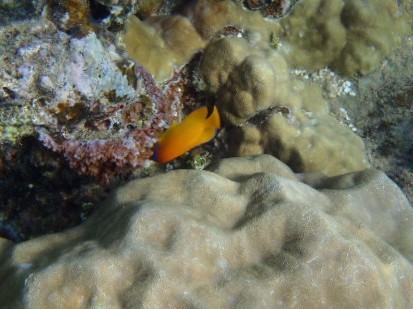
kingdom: Animalia
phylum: Chordata
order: Perciformes
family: Pomacanthidae
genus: Centropyge
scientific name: Centropyge flavissima
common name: Lemonpeel angelfish
